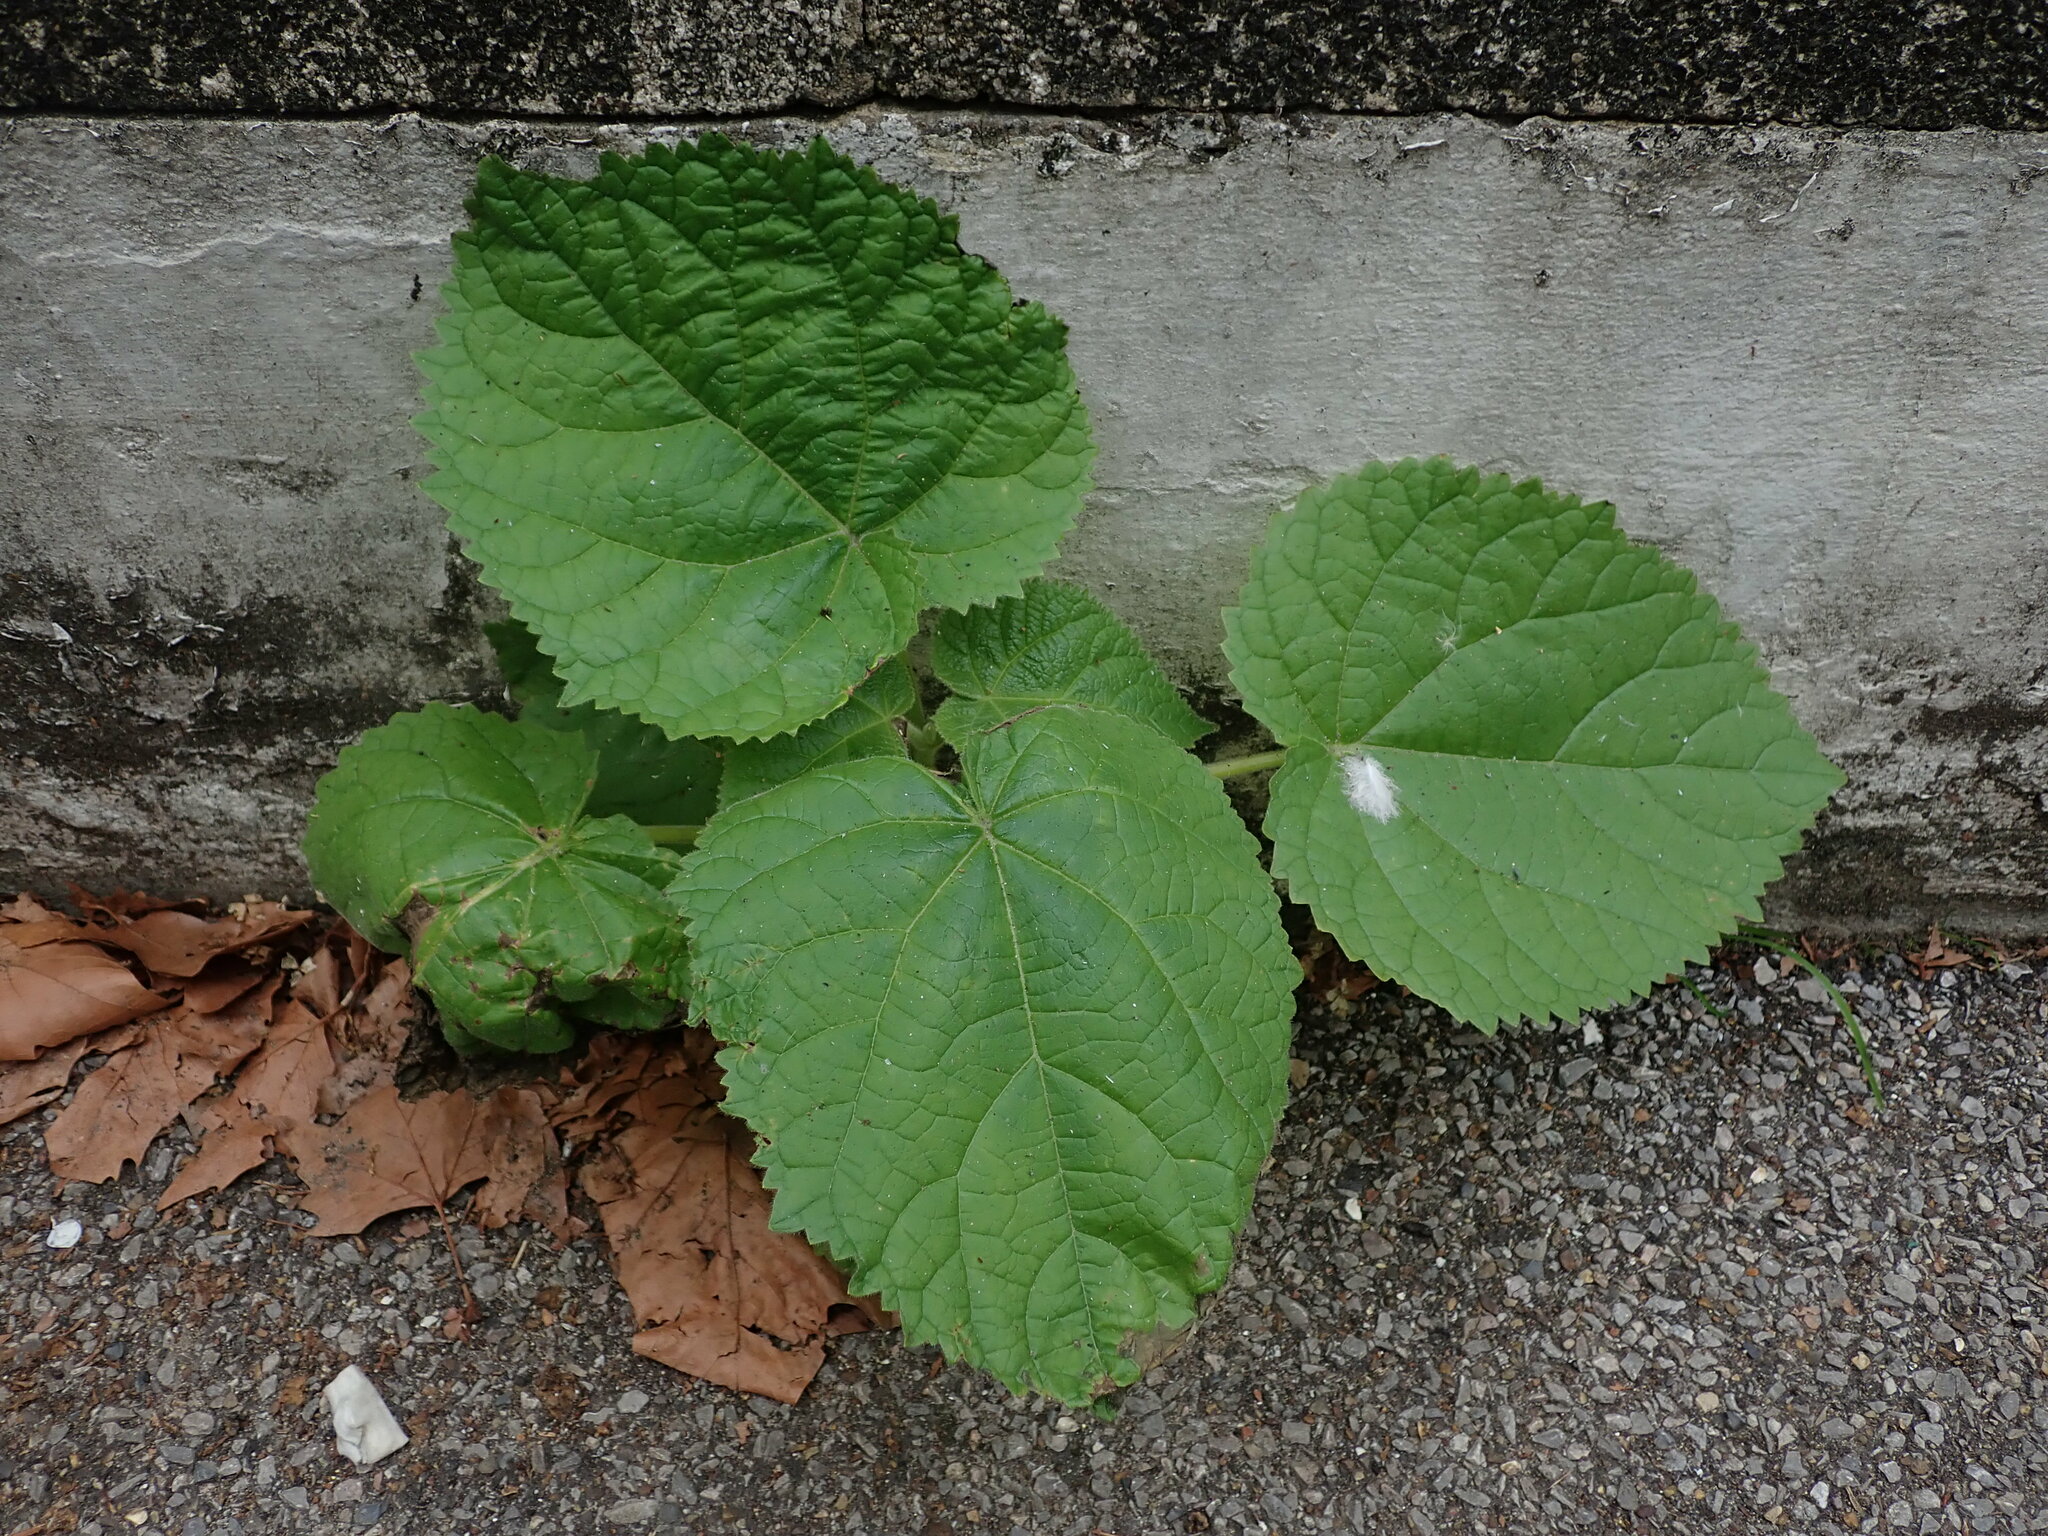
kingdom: Plantae
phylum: Tracheophyta
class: Magnoliopsida
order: Lamiales
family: Paulowniaceae
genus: Paulownia
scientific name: Paulownia tomentosa
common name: Foxglove-tree
